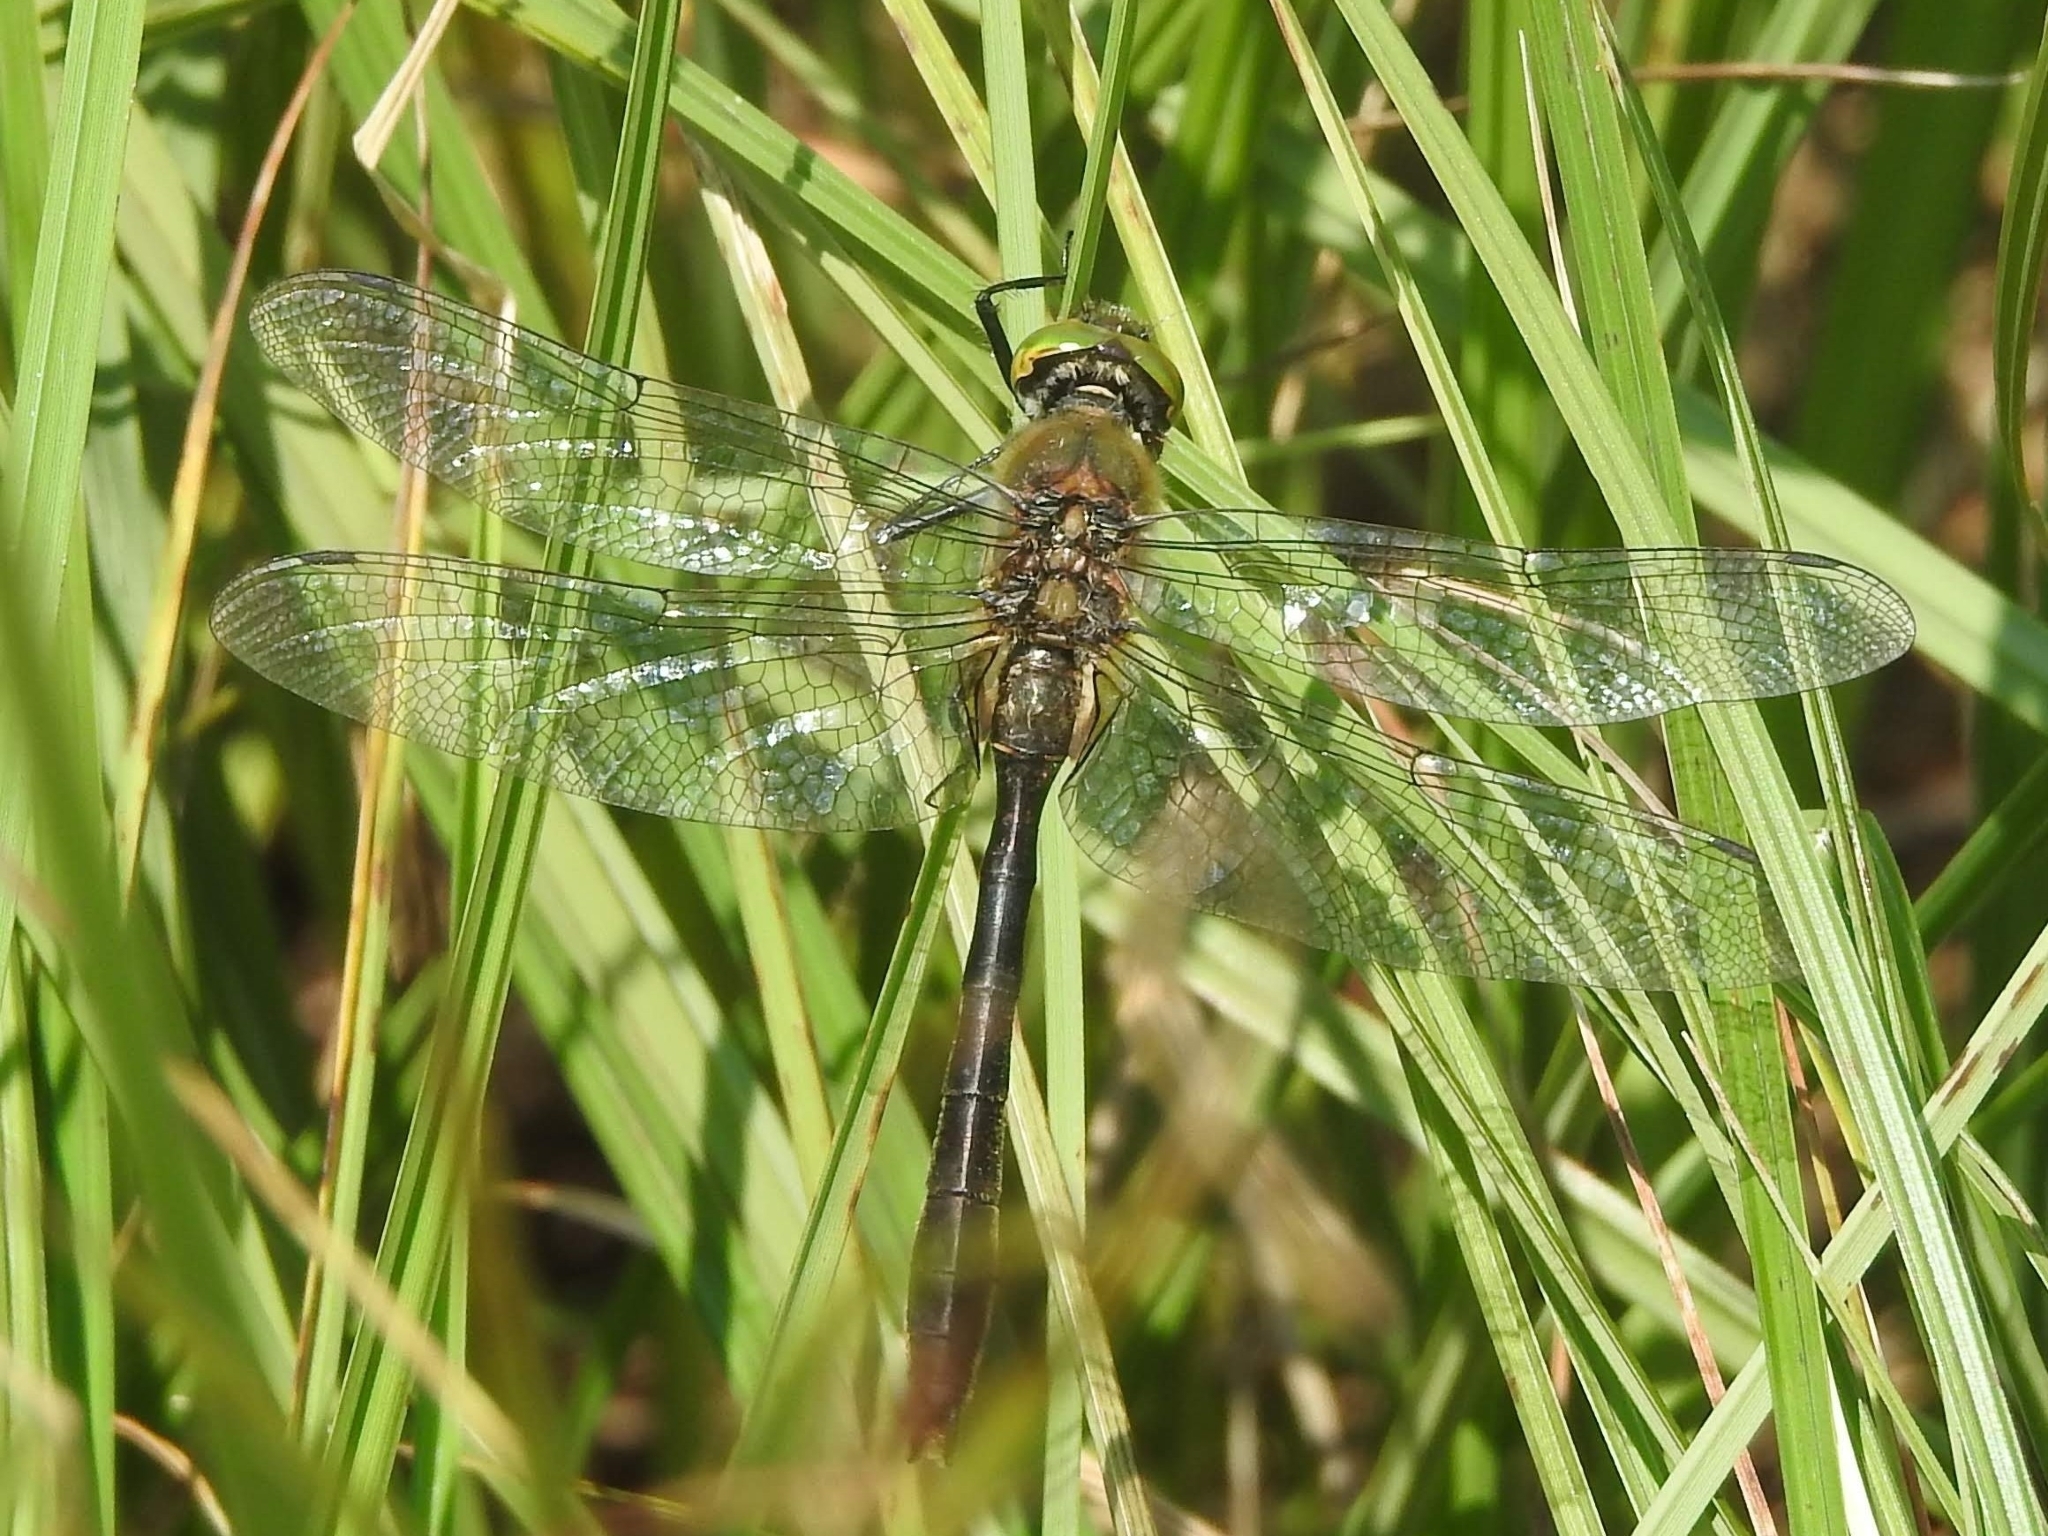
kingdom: Animalia
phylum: Arthropoda
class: Insecta
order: Odonata
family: Corduliidae
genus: Cordulia
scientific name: Cordulia aenea
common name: Downy emerald
